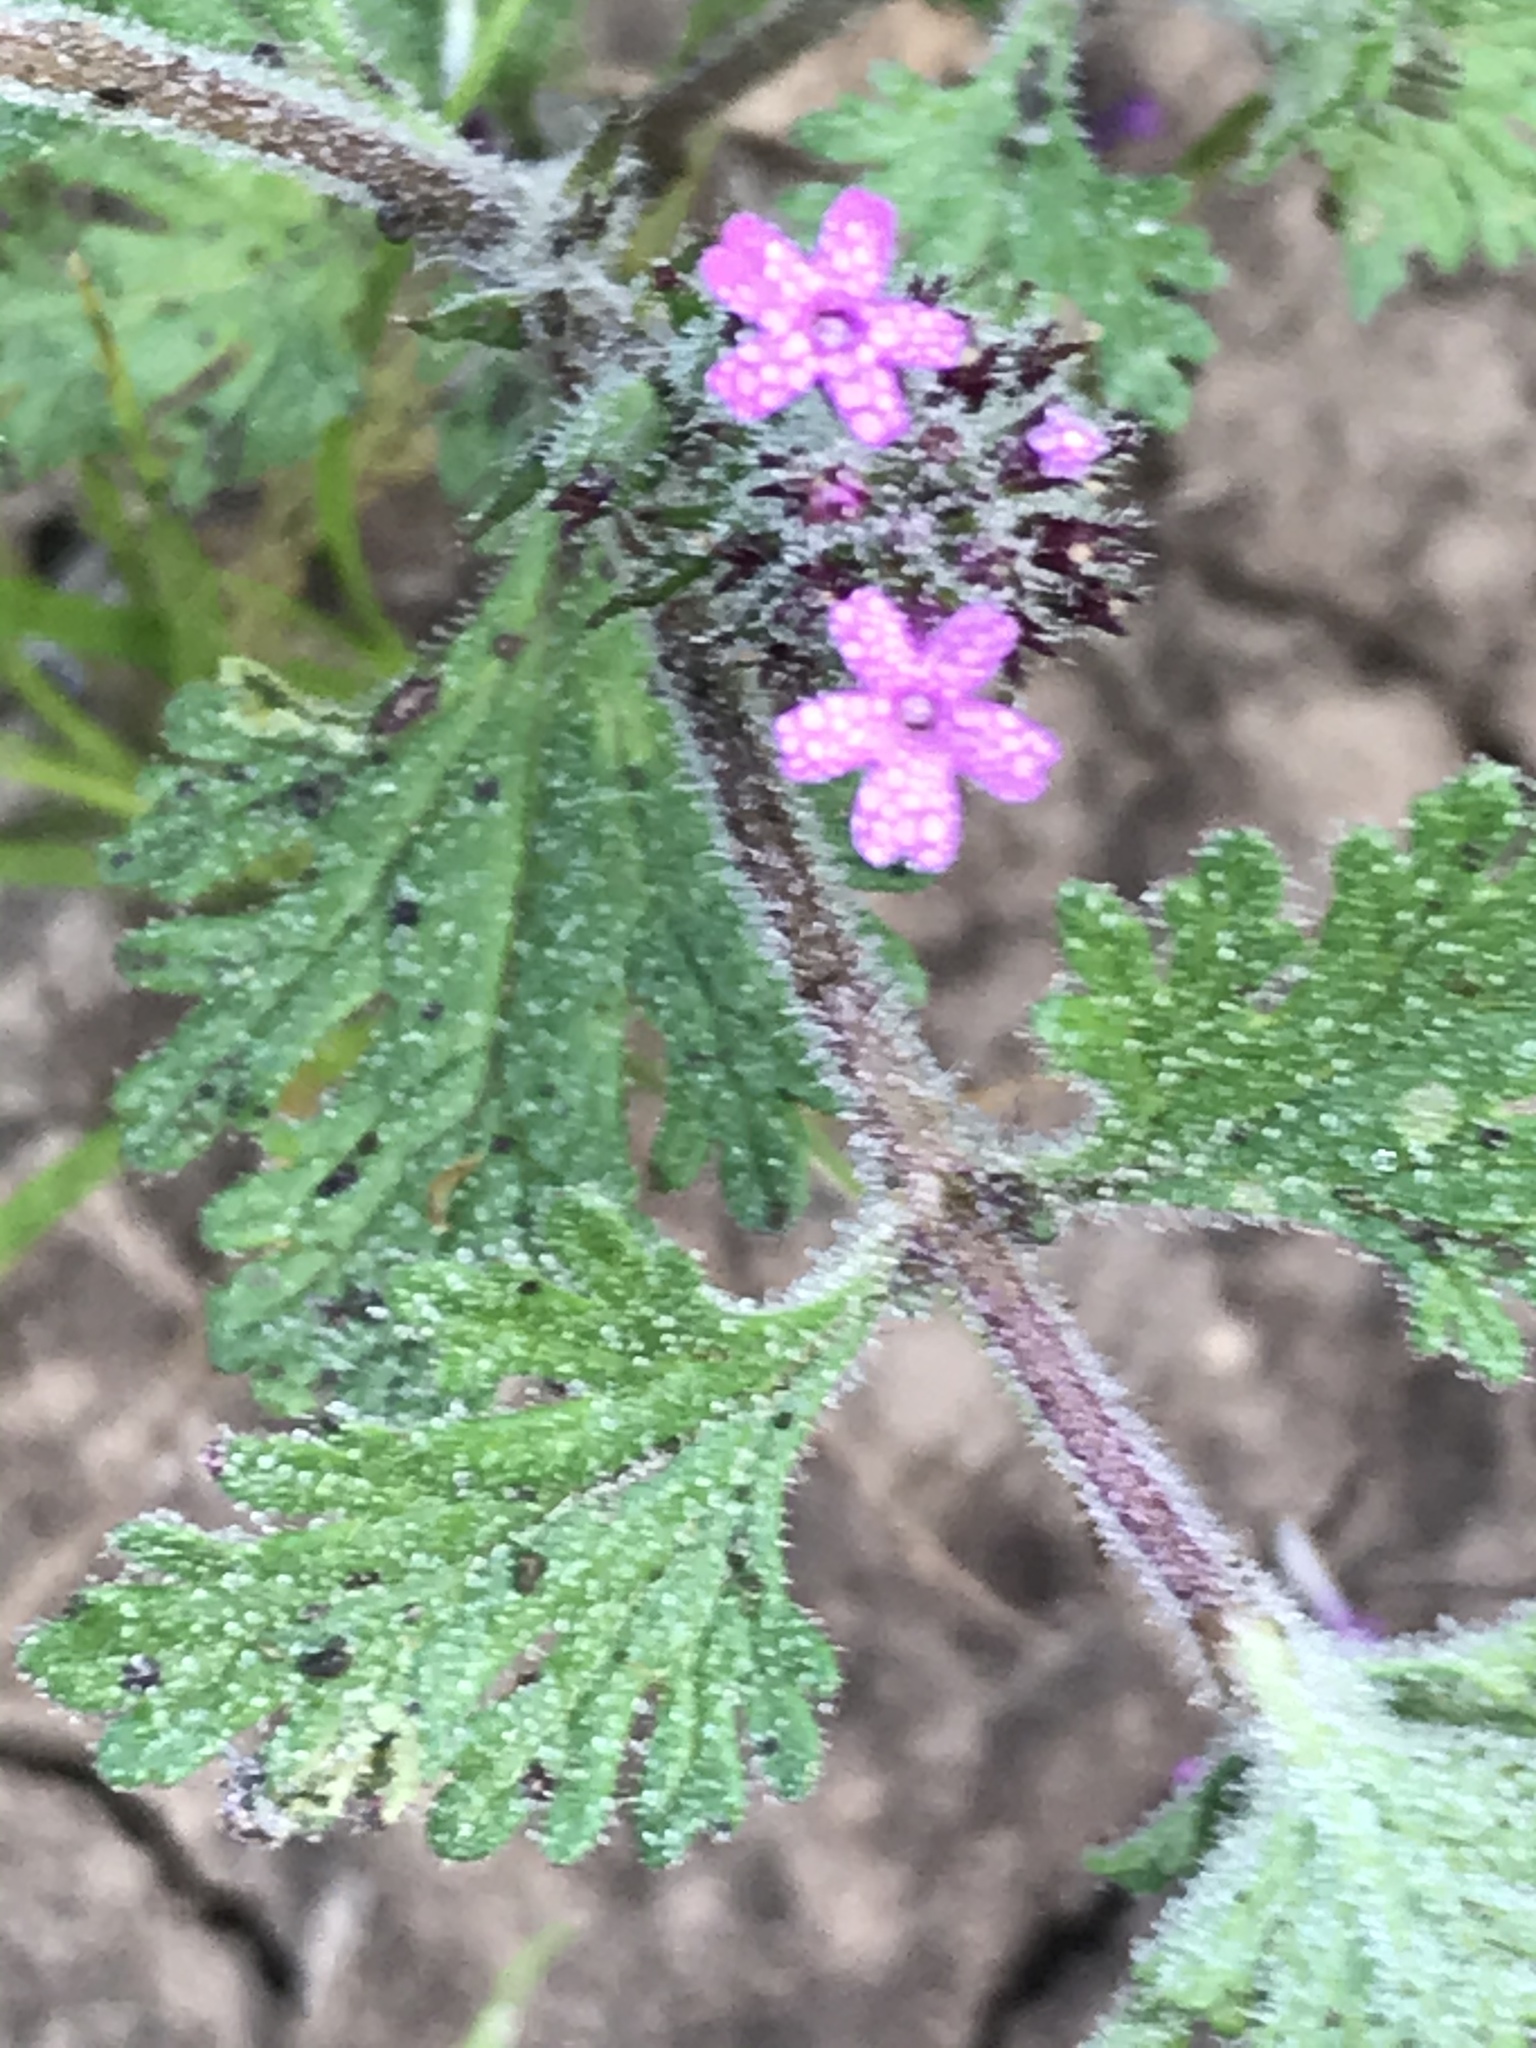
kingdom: Plantae
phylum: Tracheophyta
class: Magnoliopsida
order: Lamiales
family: Verbenaceae
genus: Verbena
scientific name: Verbena pumila
